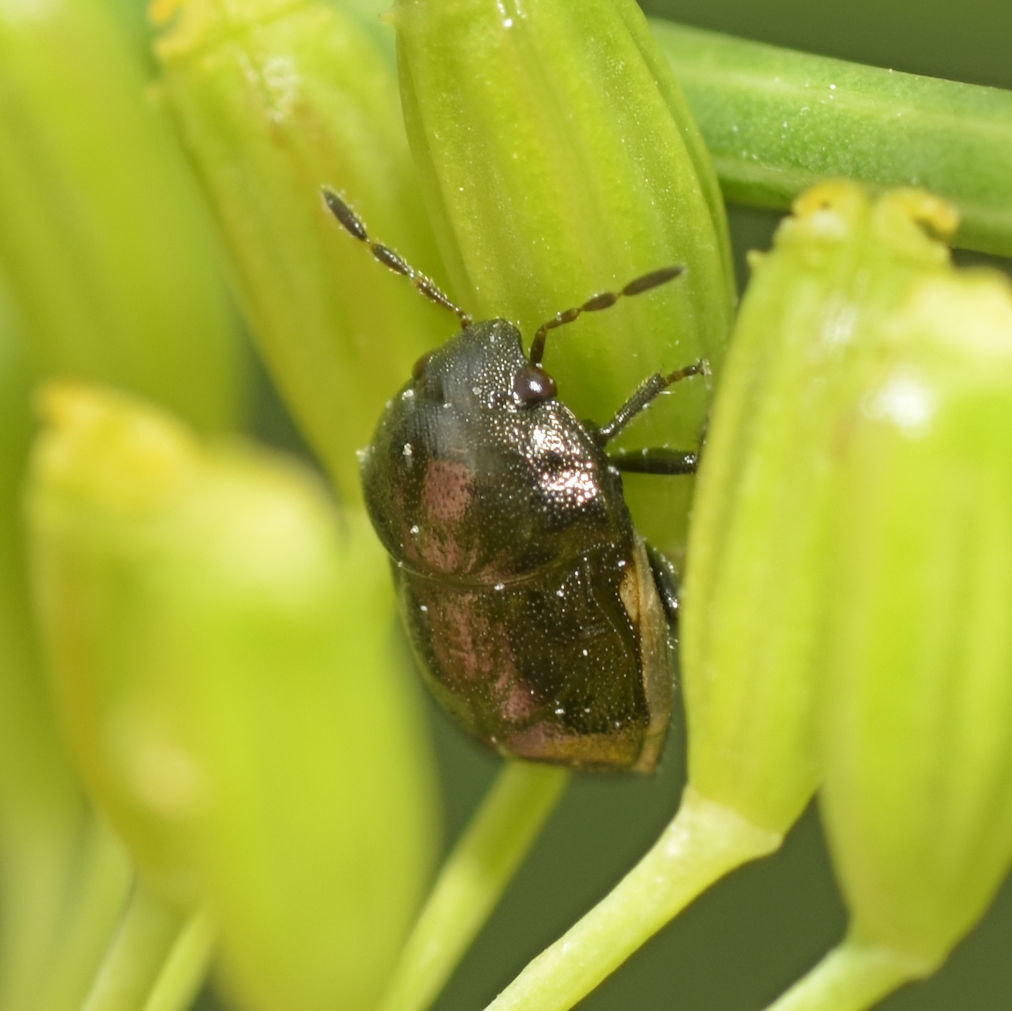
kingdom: Animalia
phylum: Arthropoda
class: Insecta
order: Hemiptera
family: Thyreocoridae
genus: Corimelaena
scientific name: Corimelaena pulicaria
